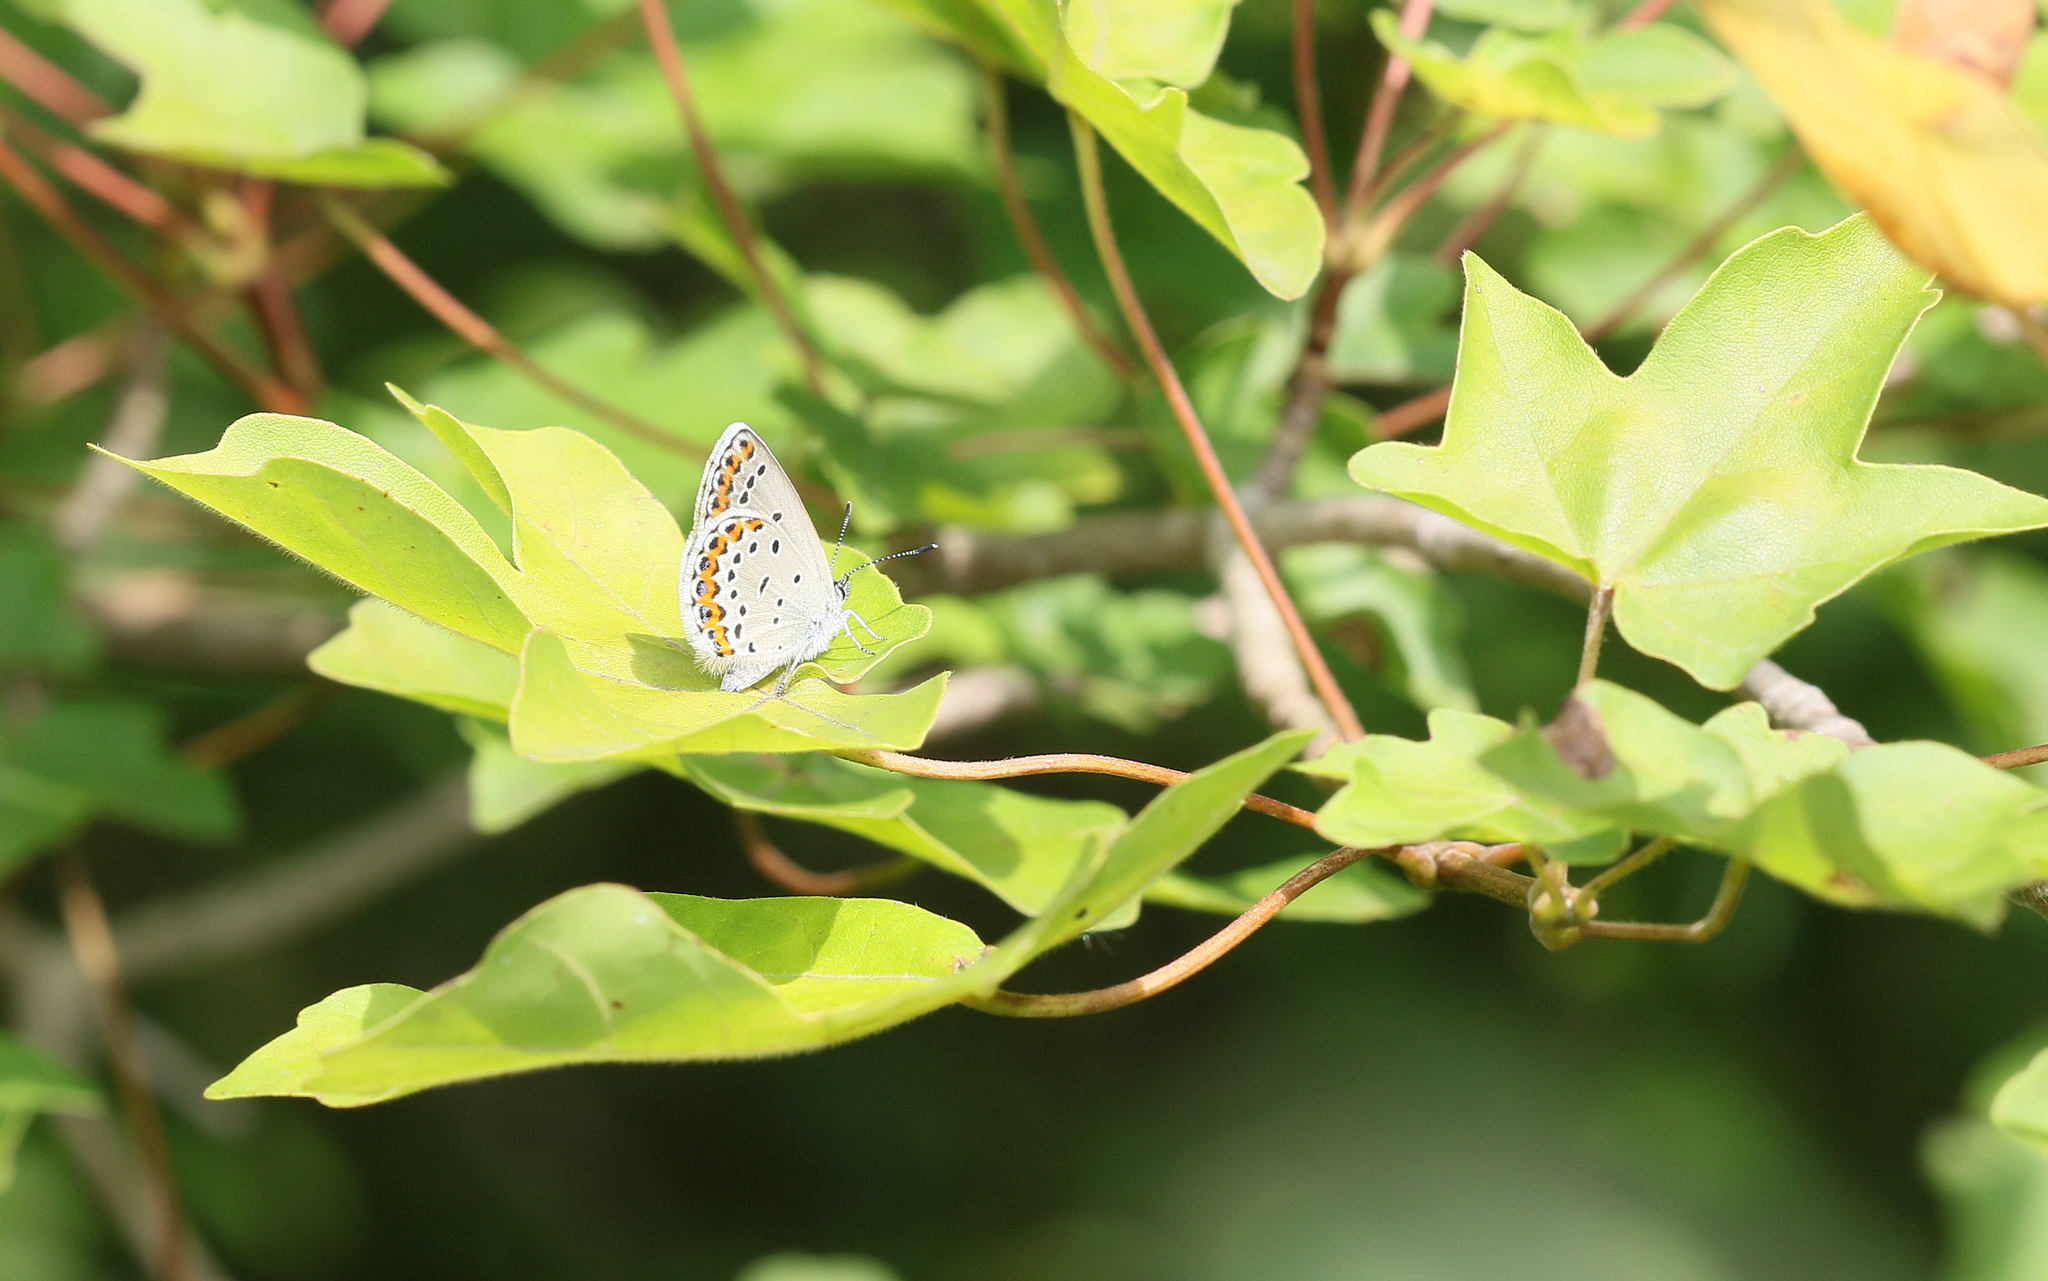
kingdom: Animalia
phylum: Arthropoda
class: Insecta
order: Lepidoptera
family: Lycaenidae
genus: Plebejus
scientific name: Plebejus argyrognomon
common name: Reverdin's blue
